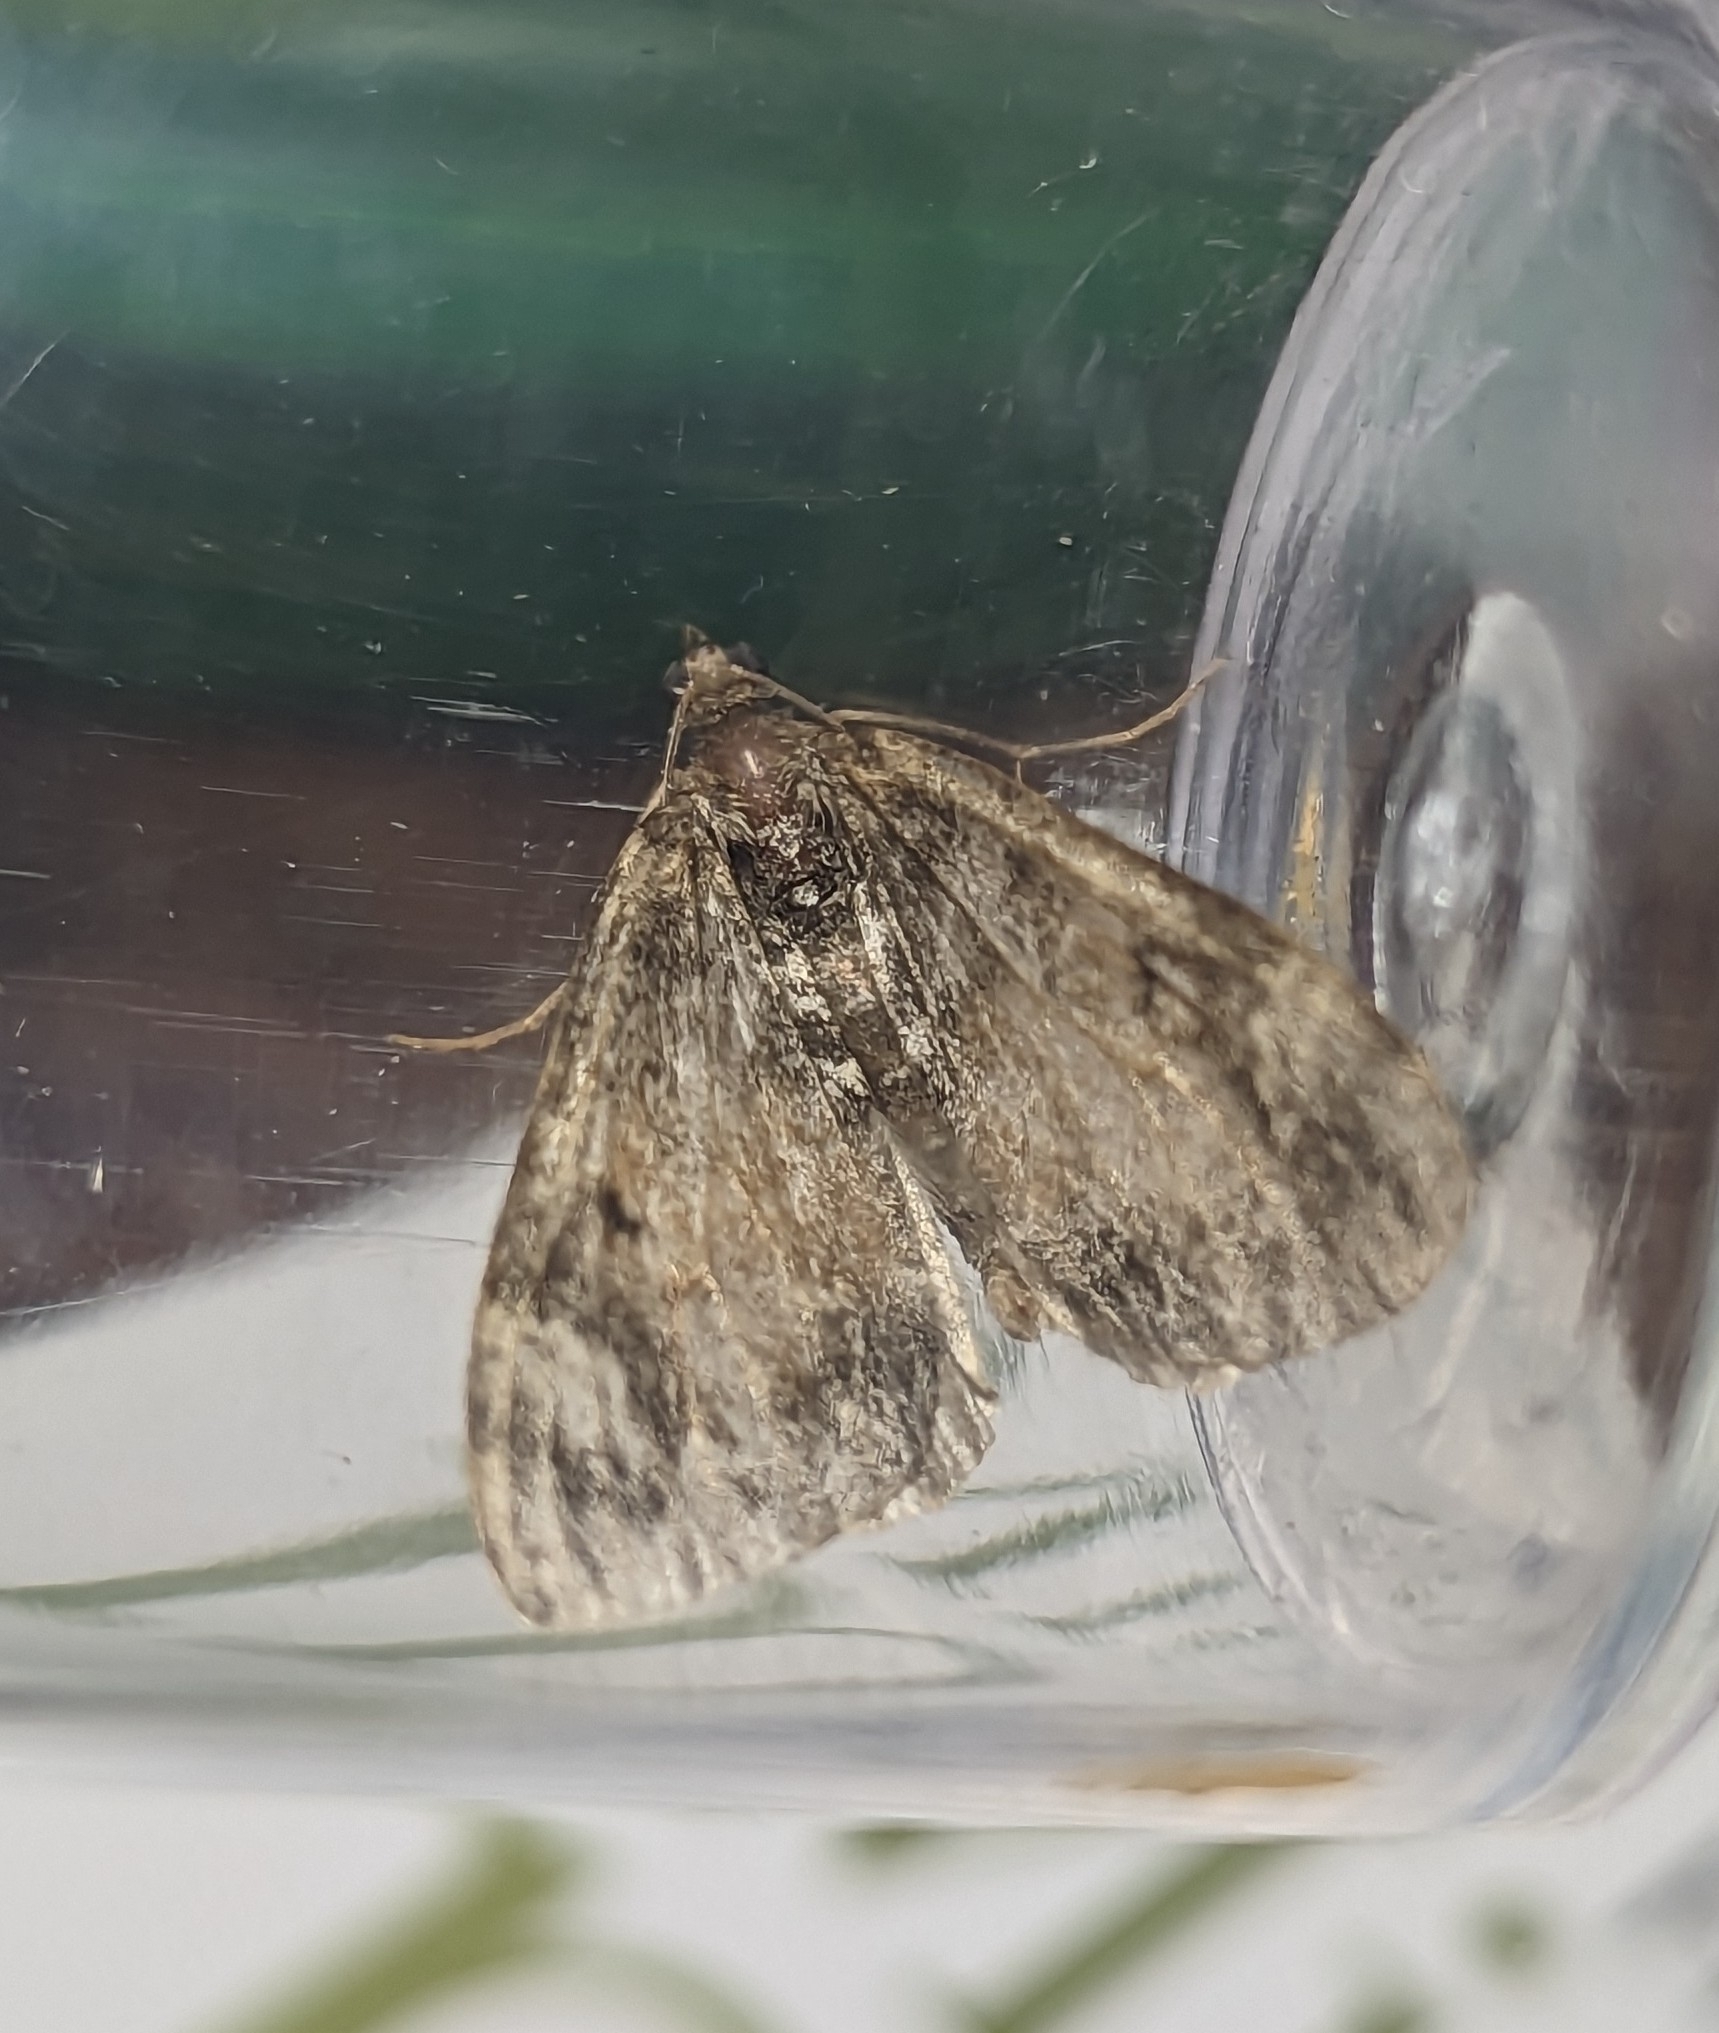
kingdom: Animalia
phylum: Arthropoda
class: Insecta
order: Lepidoptera
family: Geometridae
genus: Dysstroma
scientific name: Dysstroma truncata
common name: Common marbled carpet
